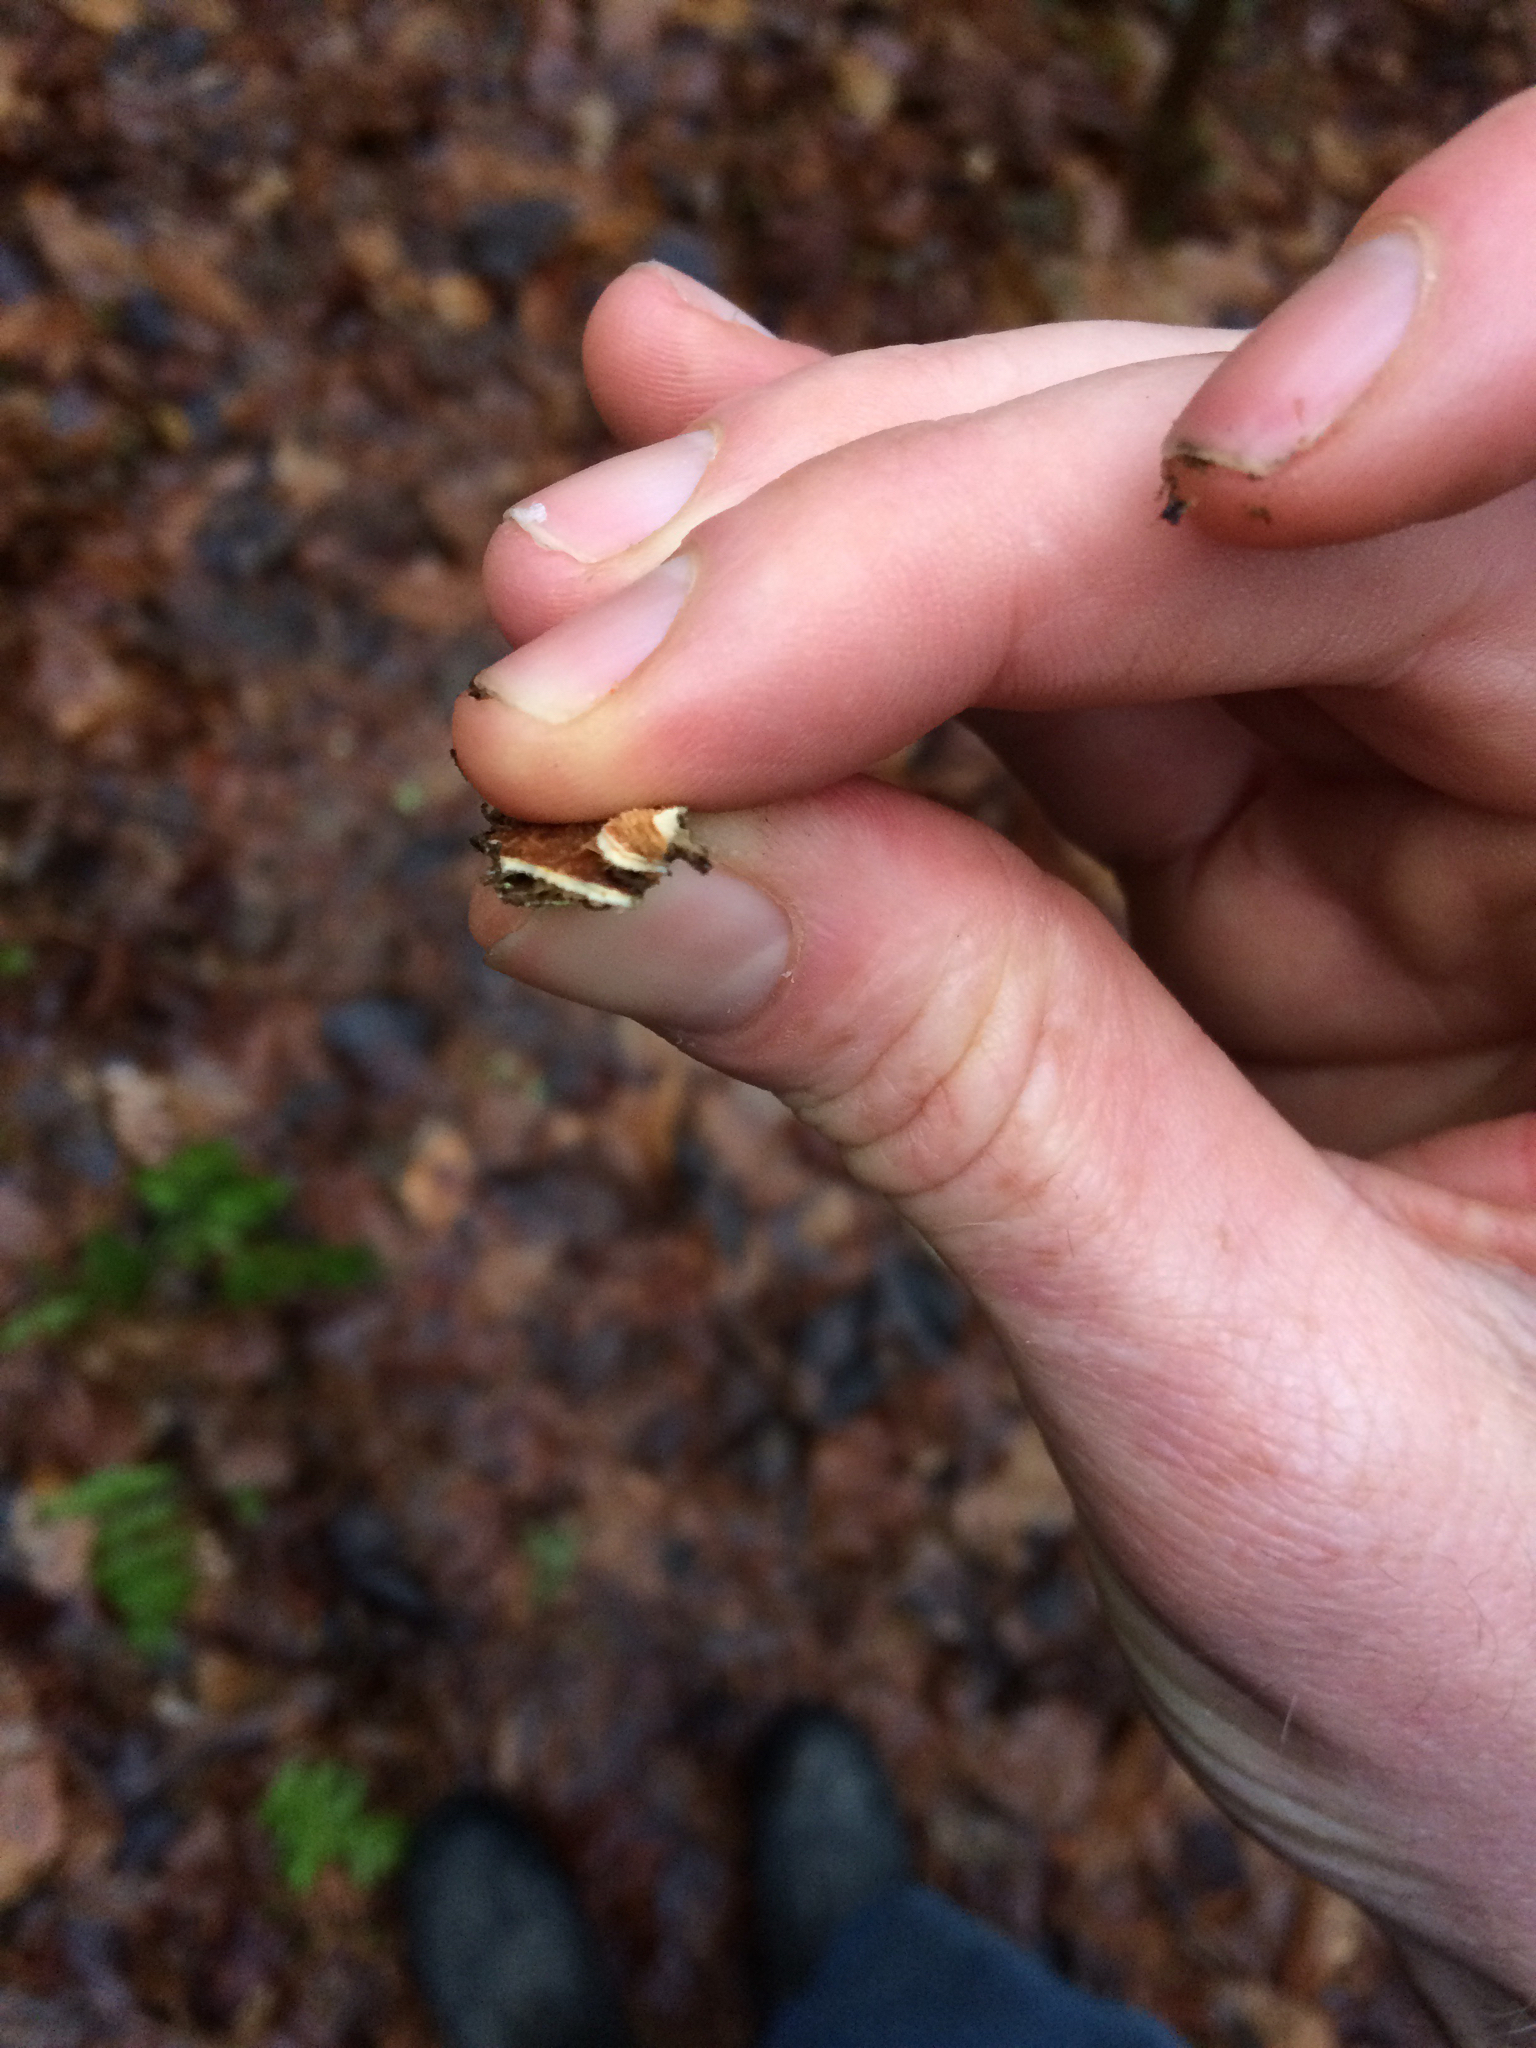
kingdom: Plantae
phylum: Tracheophyta
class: Magnoliopsida
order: Rosales
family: Ulmaceae
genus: Ulmus
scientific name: Ulmus americana
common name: American elm
